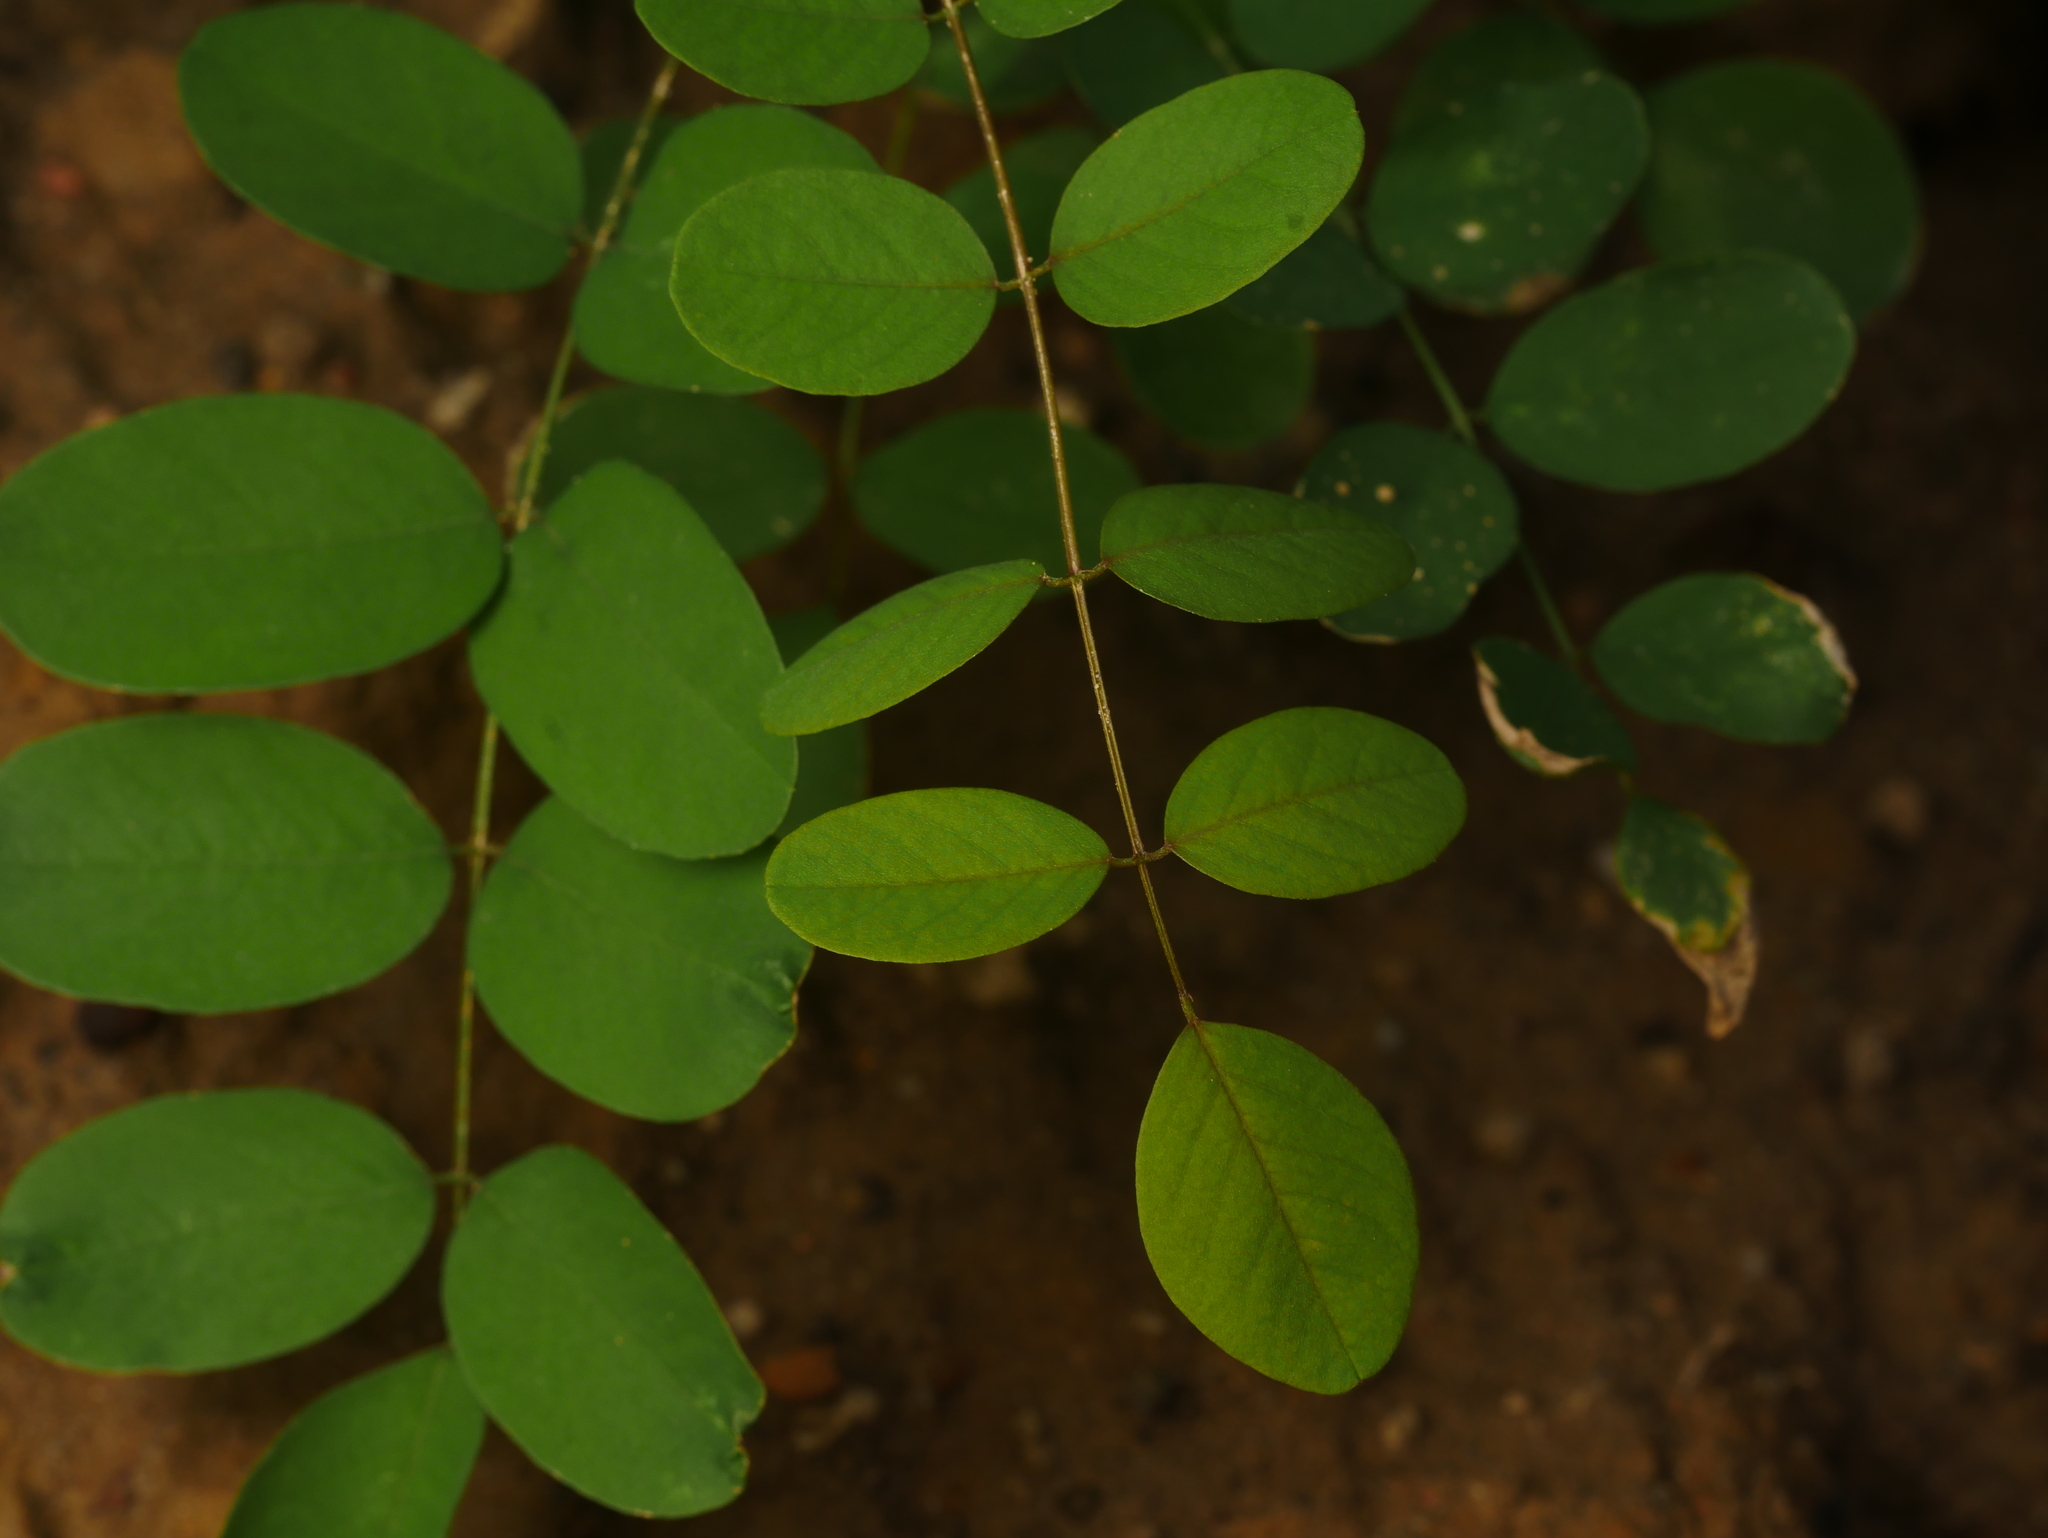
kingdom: Plantae
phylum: Tracheophyta
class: Magnoliopsida
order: Fabales
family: Fabaceae
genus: Robinia
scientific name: Robinia pseudoacacia
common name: Black locust
